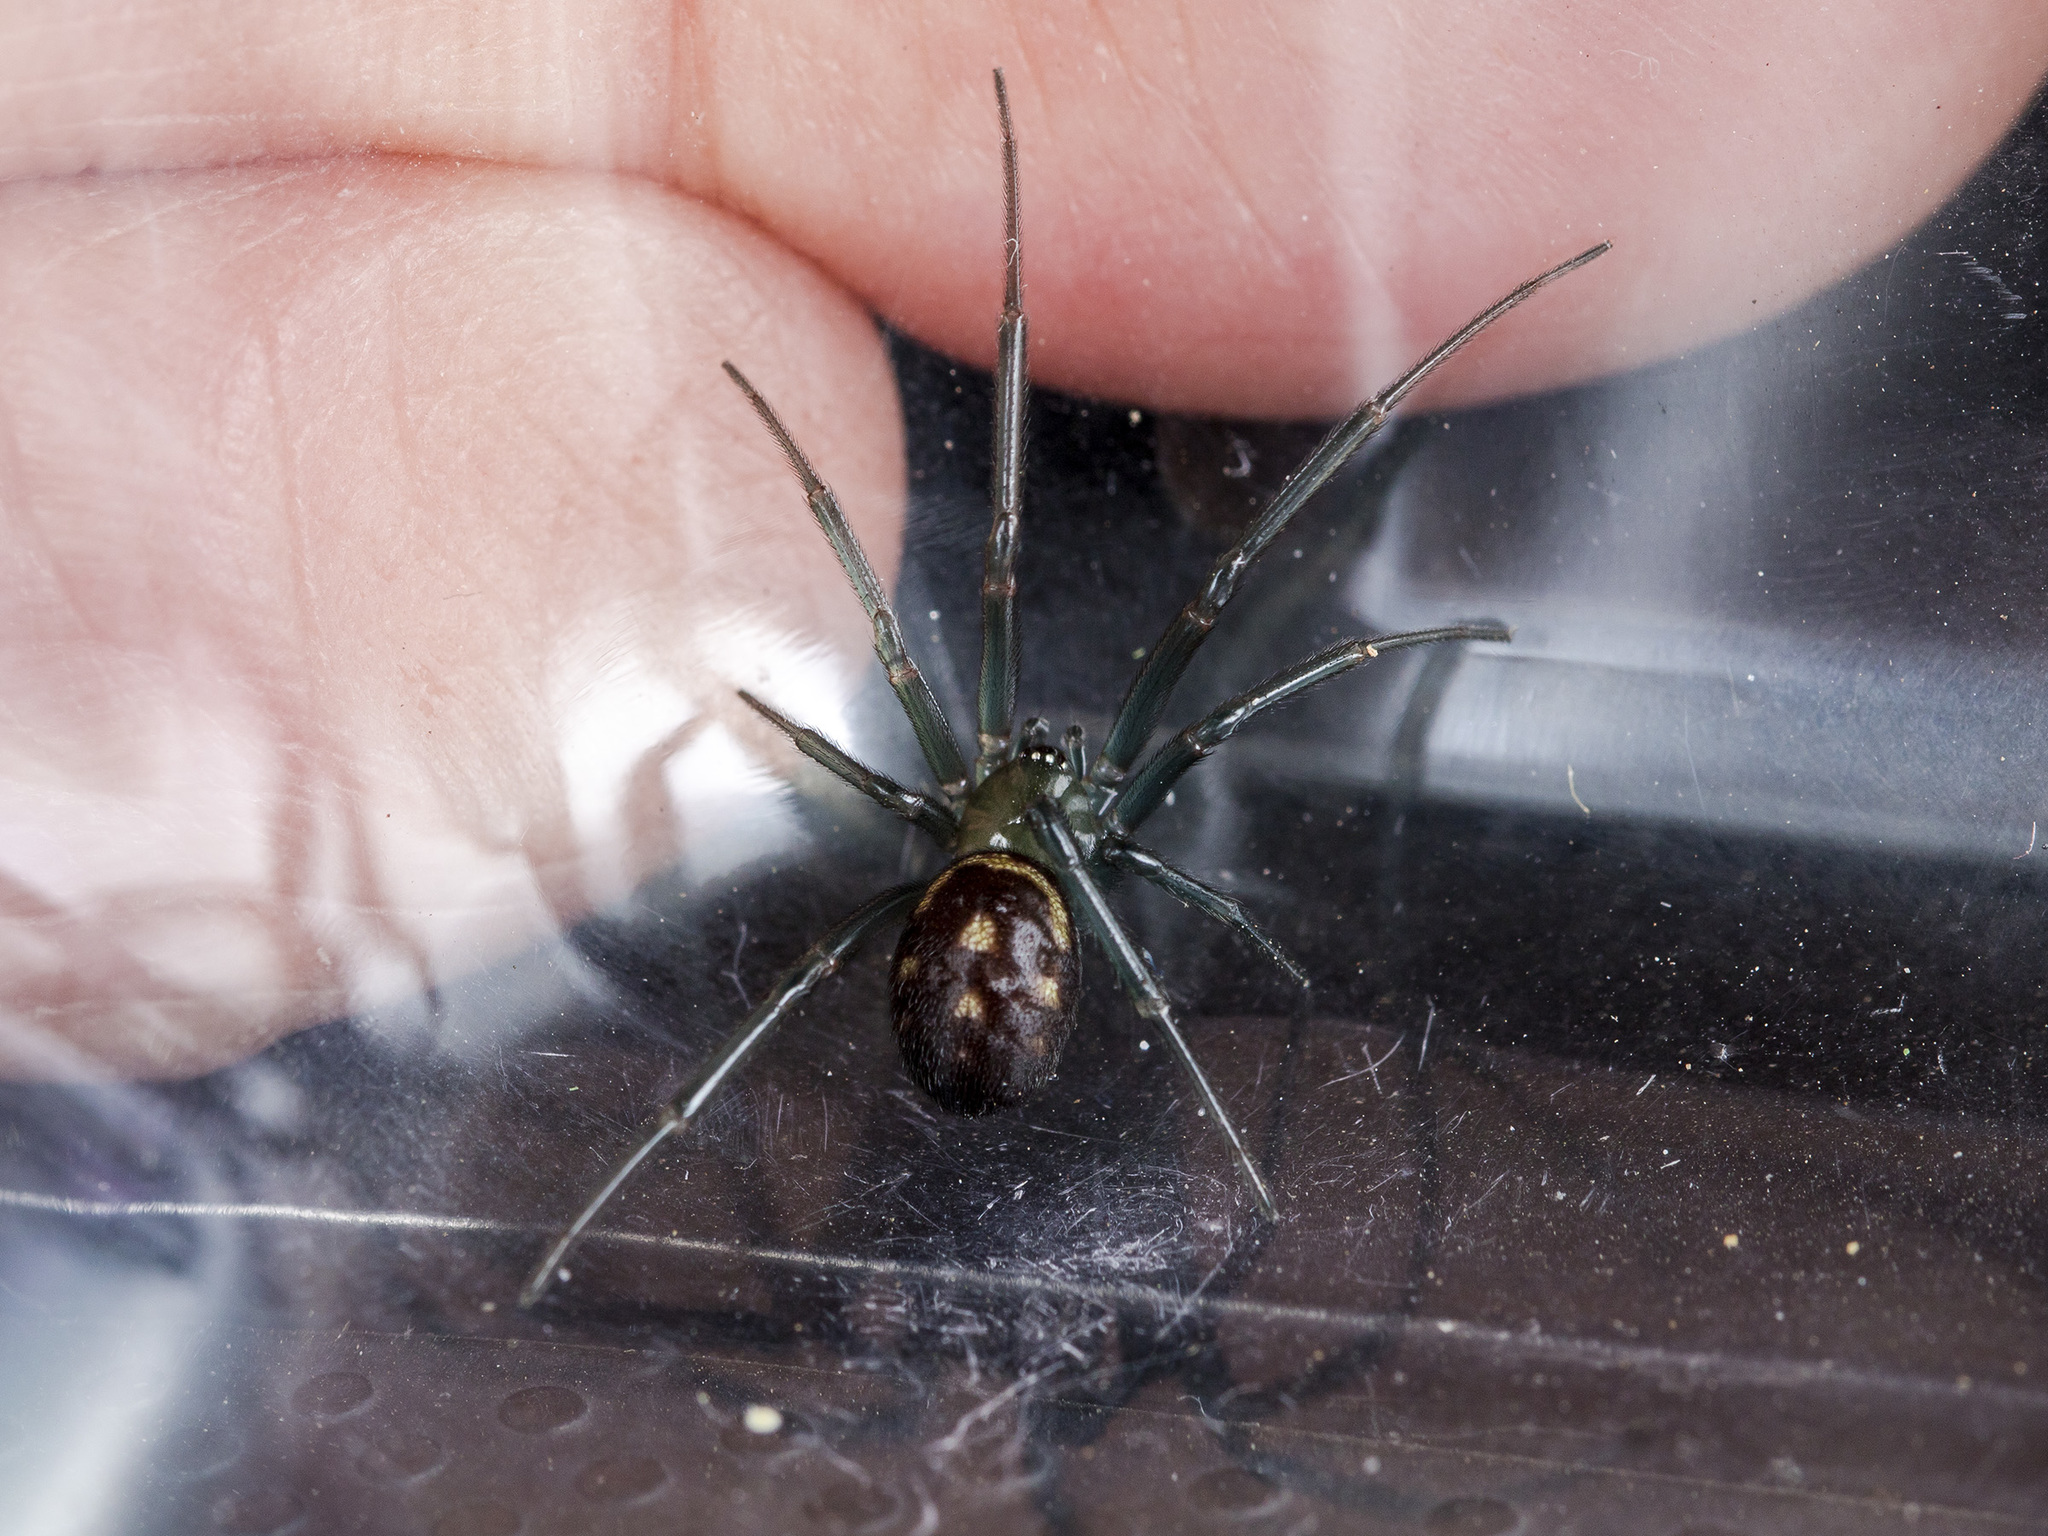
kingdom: Animalia
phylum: Arthropoda
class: Arachnida
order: Araneae
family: Theridiidae
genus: Steatoda
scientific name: Steatoda grossa
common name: False black widow
